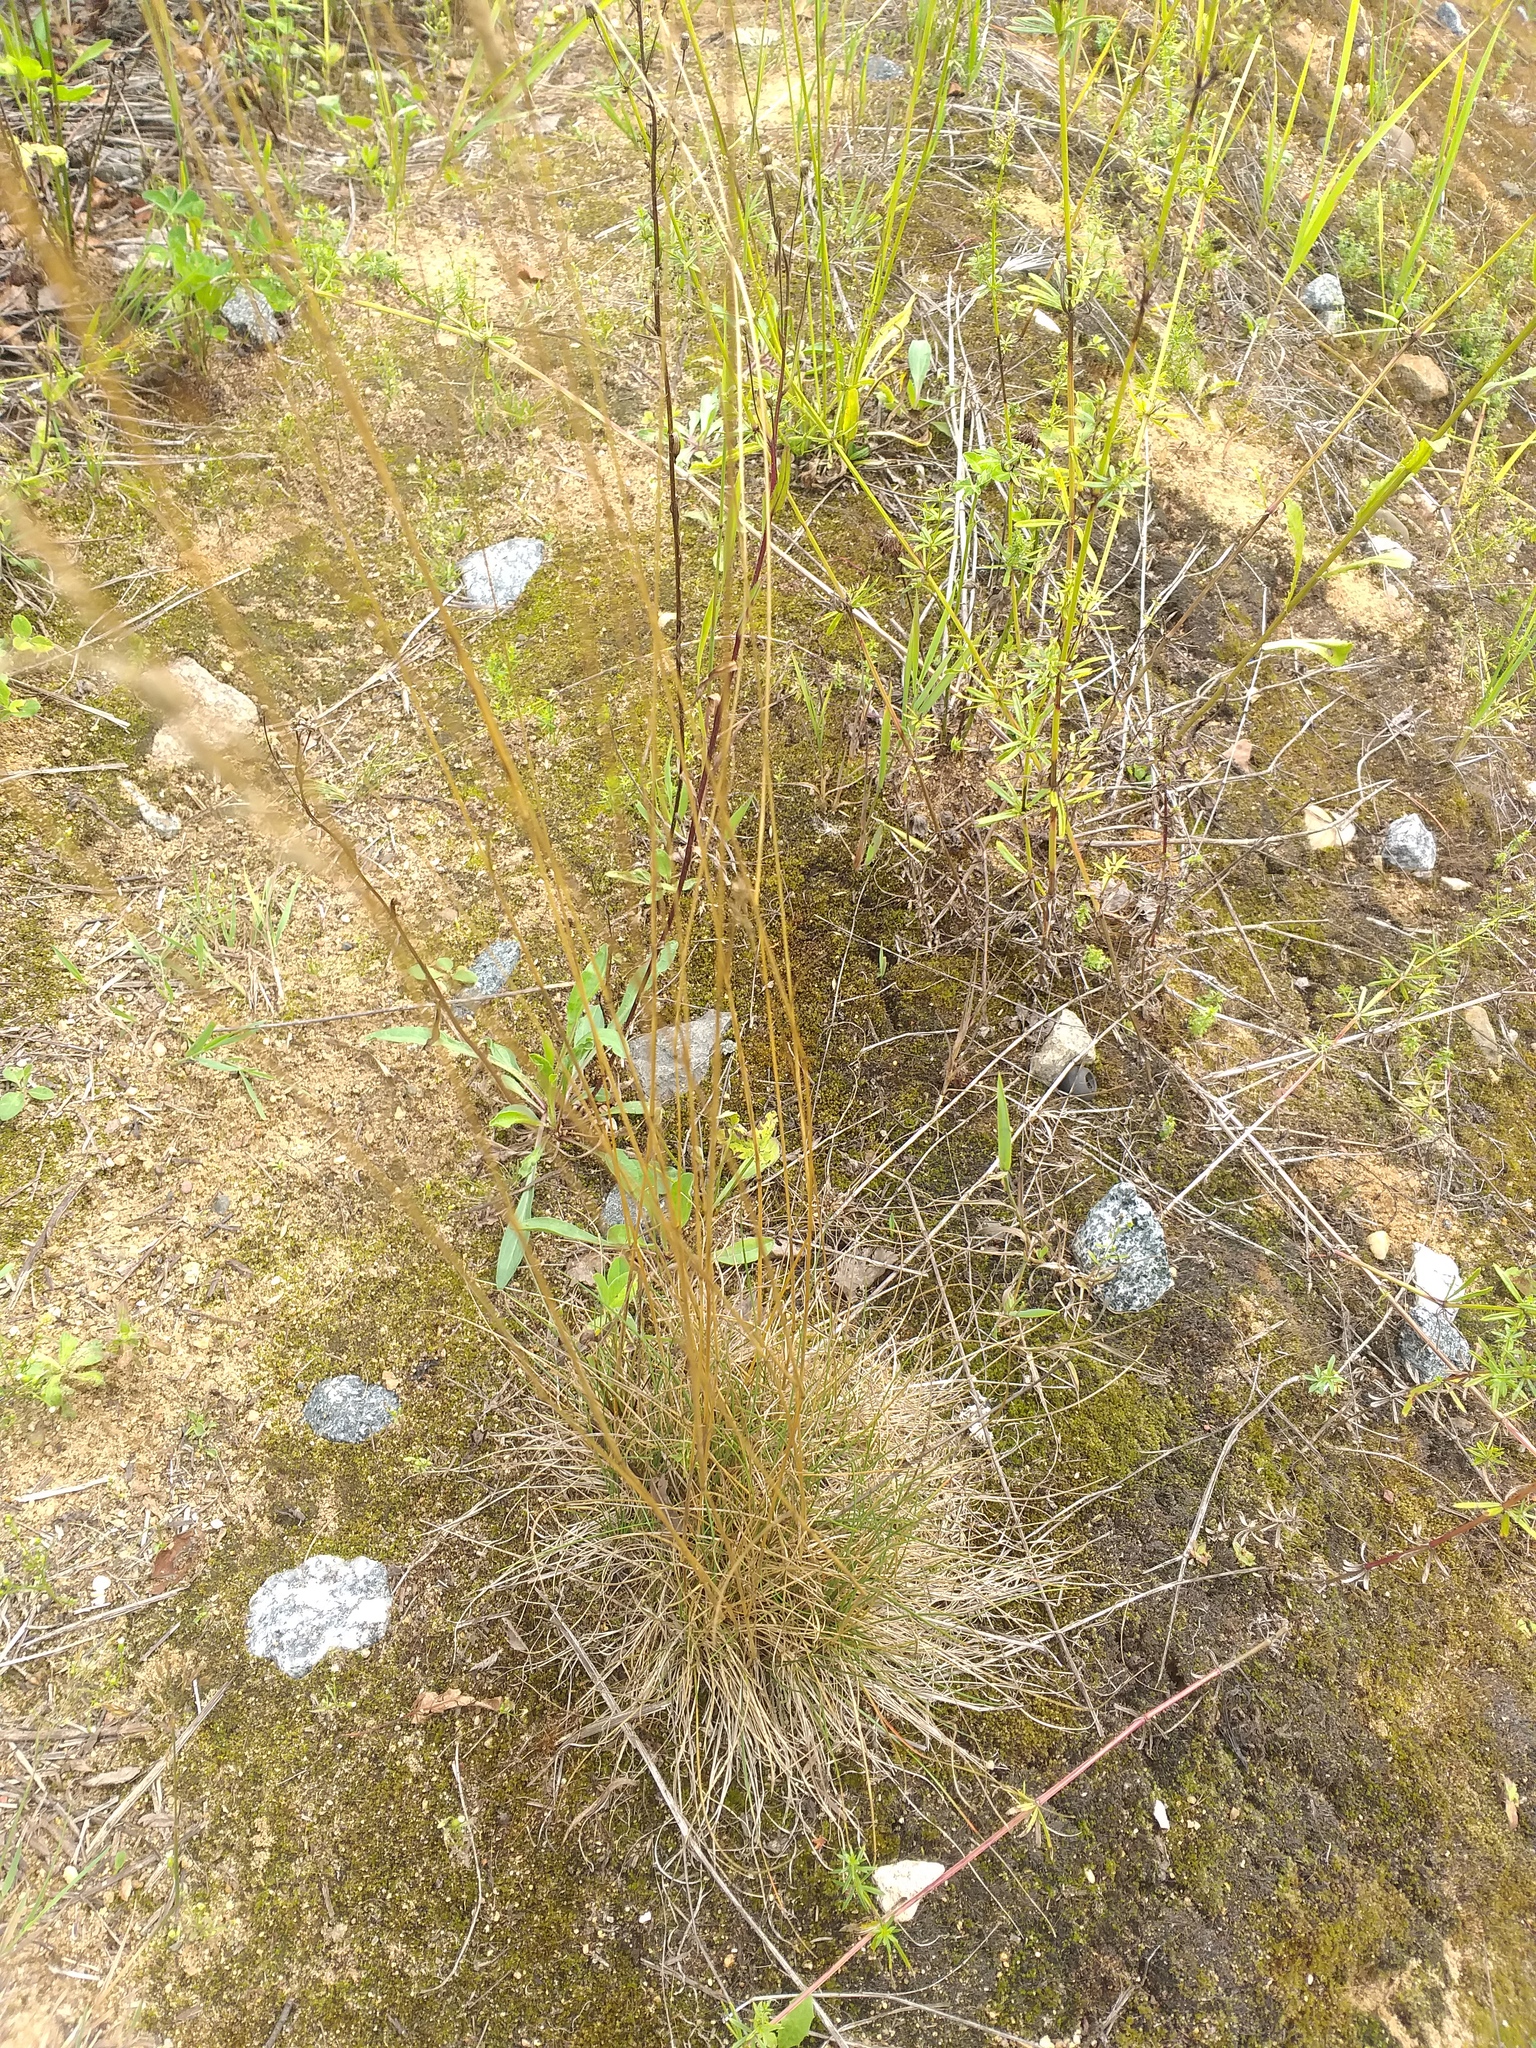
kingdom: Plantae
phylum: Tracheophyta
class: Liliopsida
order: Poales
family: Poaceae
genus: Festuca
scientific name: Festuca valesiaca
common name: Volga fescue
